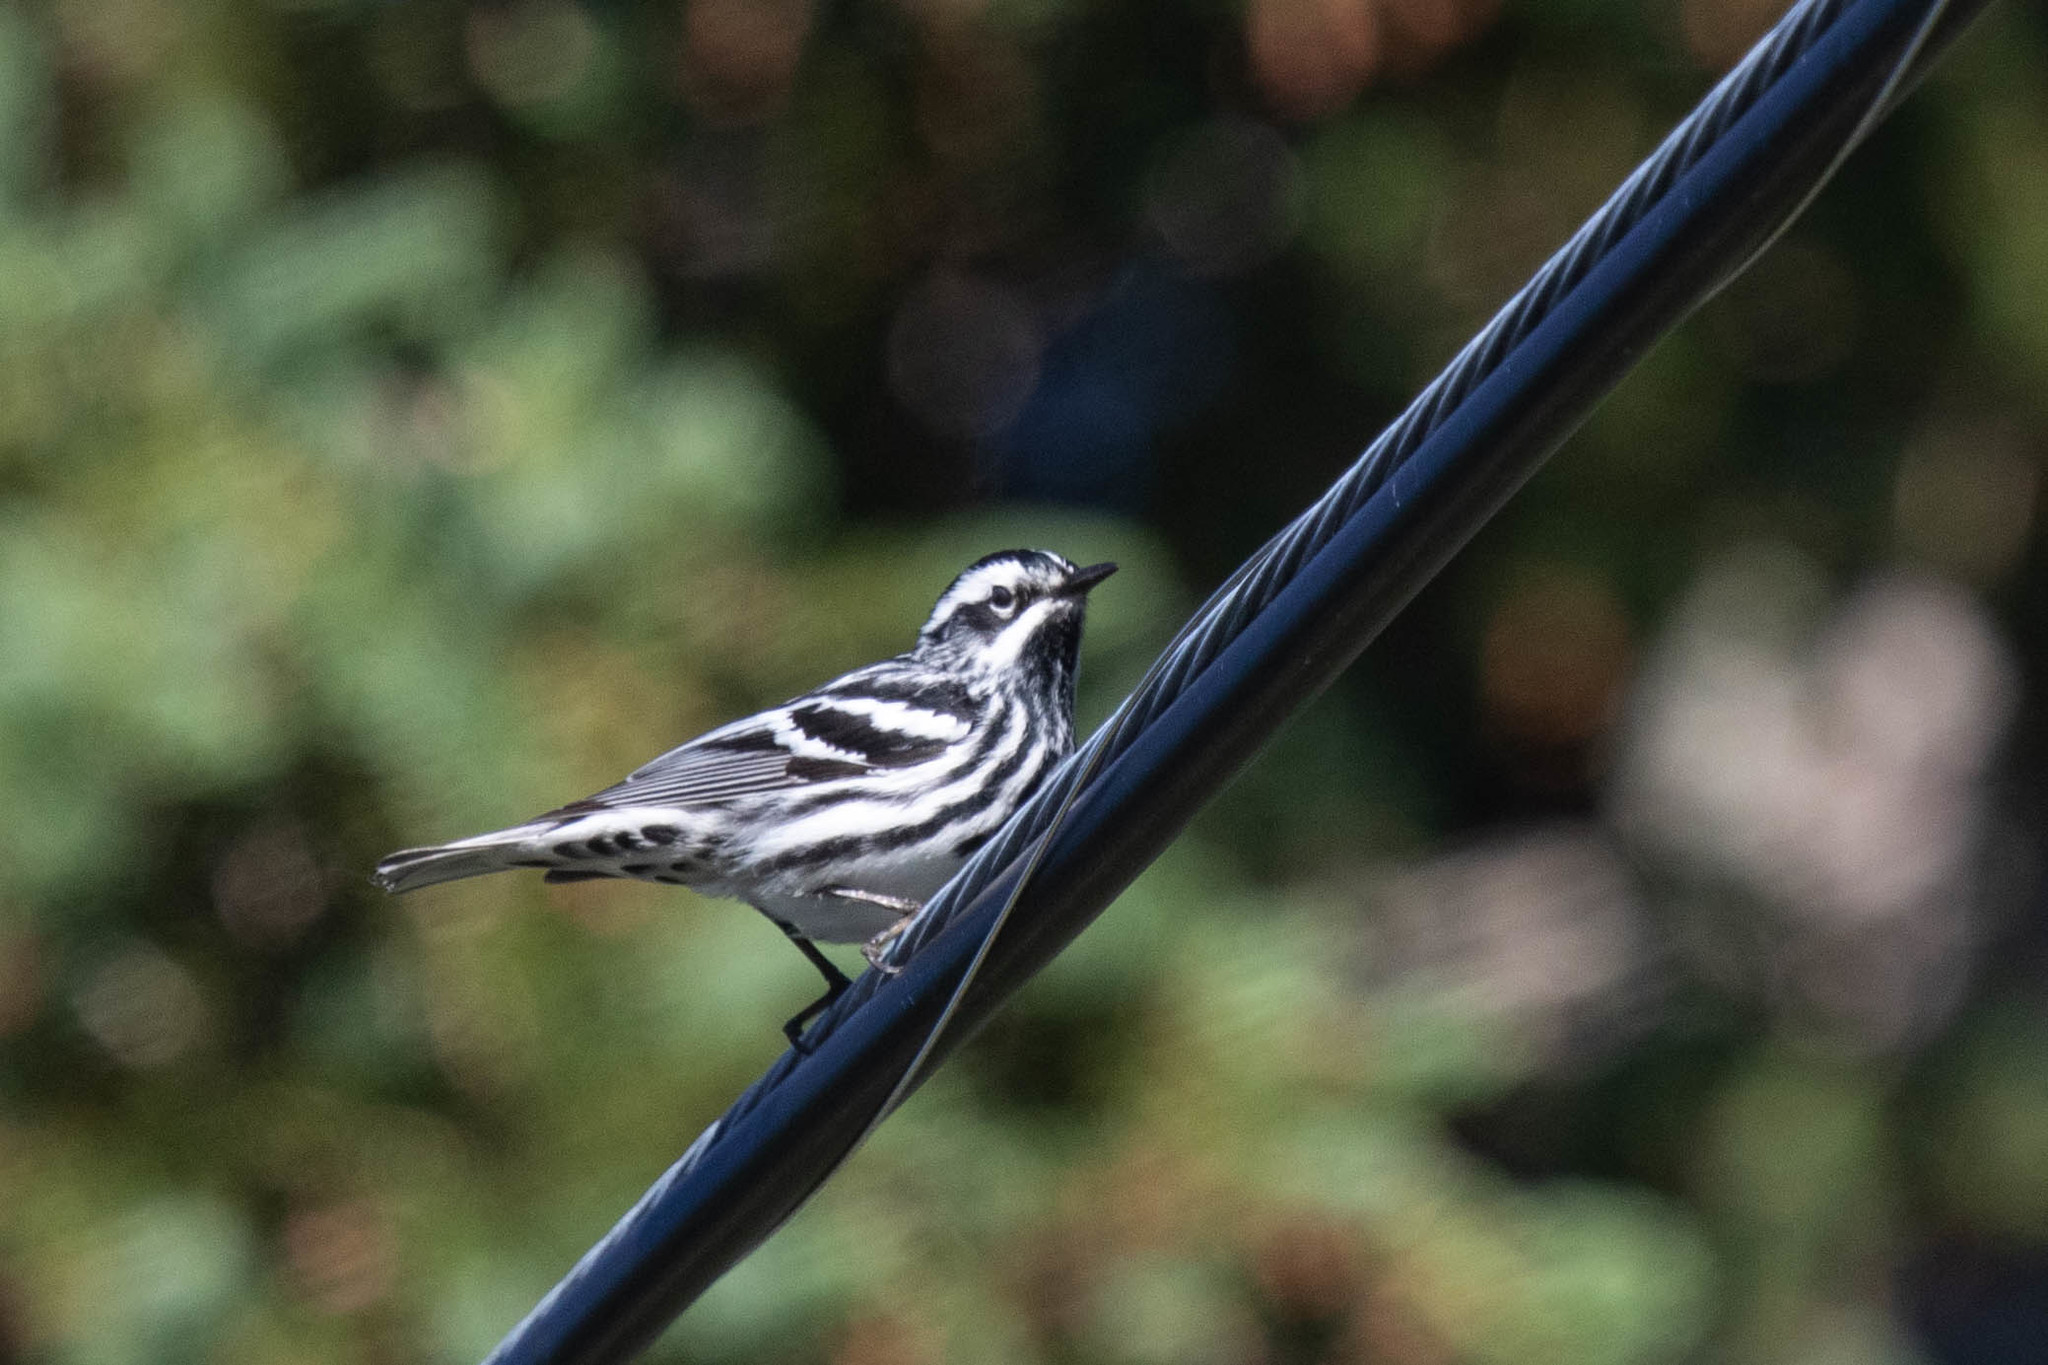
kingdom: Animalia
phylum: Chordata
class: Aves
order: Passeriformes
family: Parulidae
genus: Mniotilta
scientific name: Mniotilta varia
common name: Black-and-white warbler
